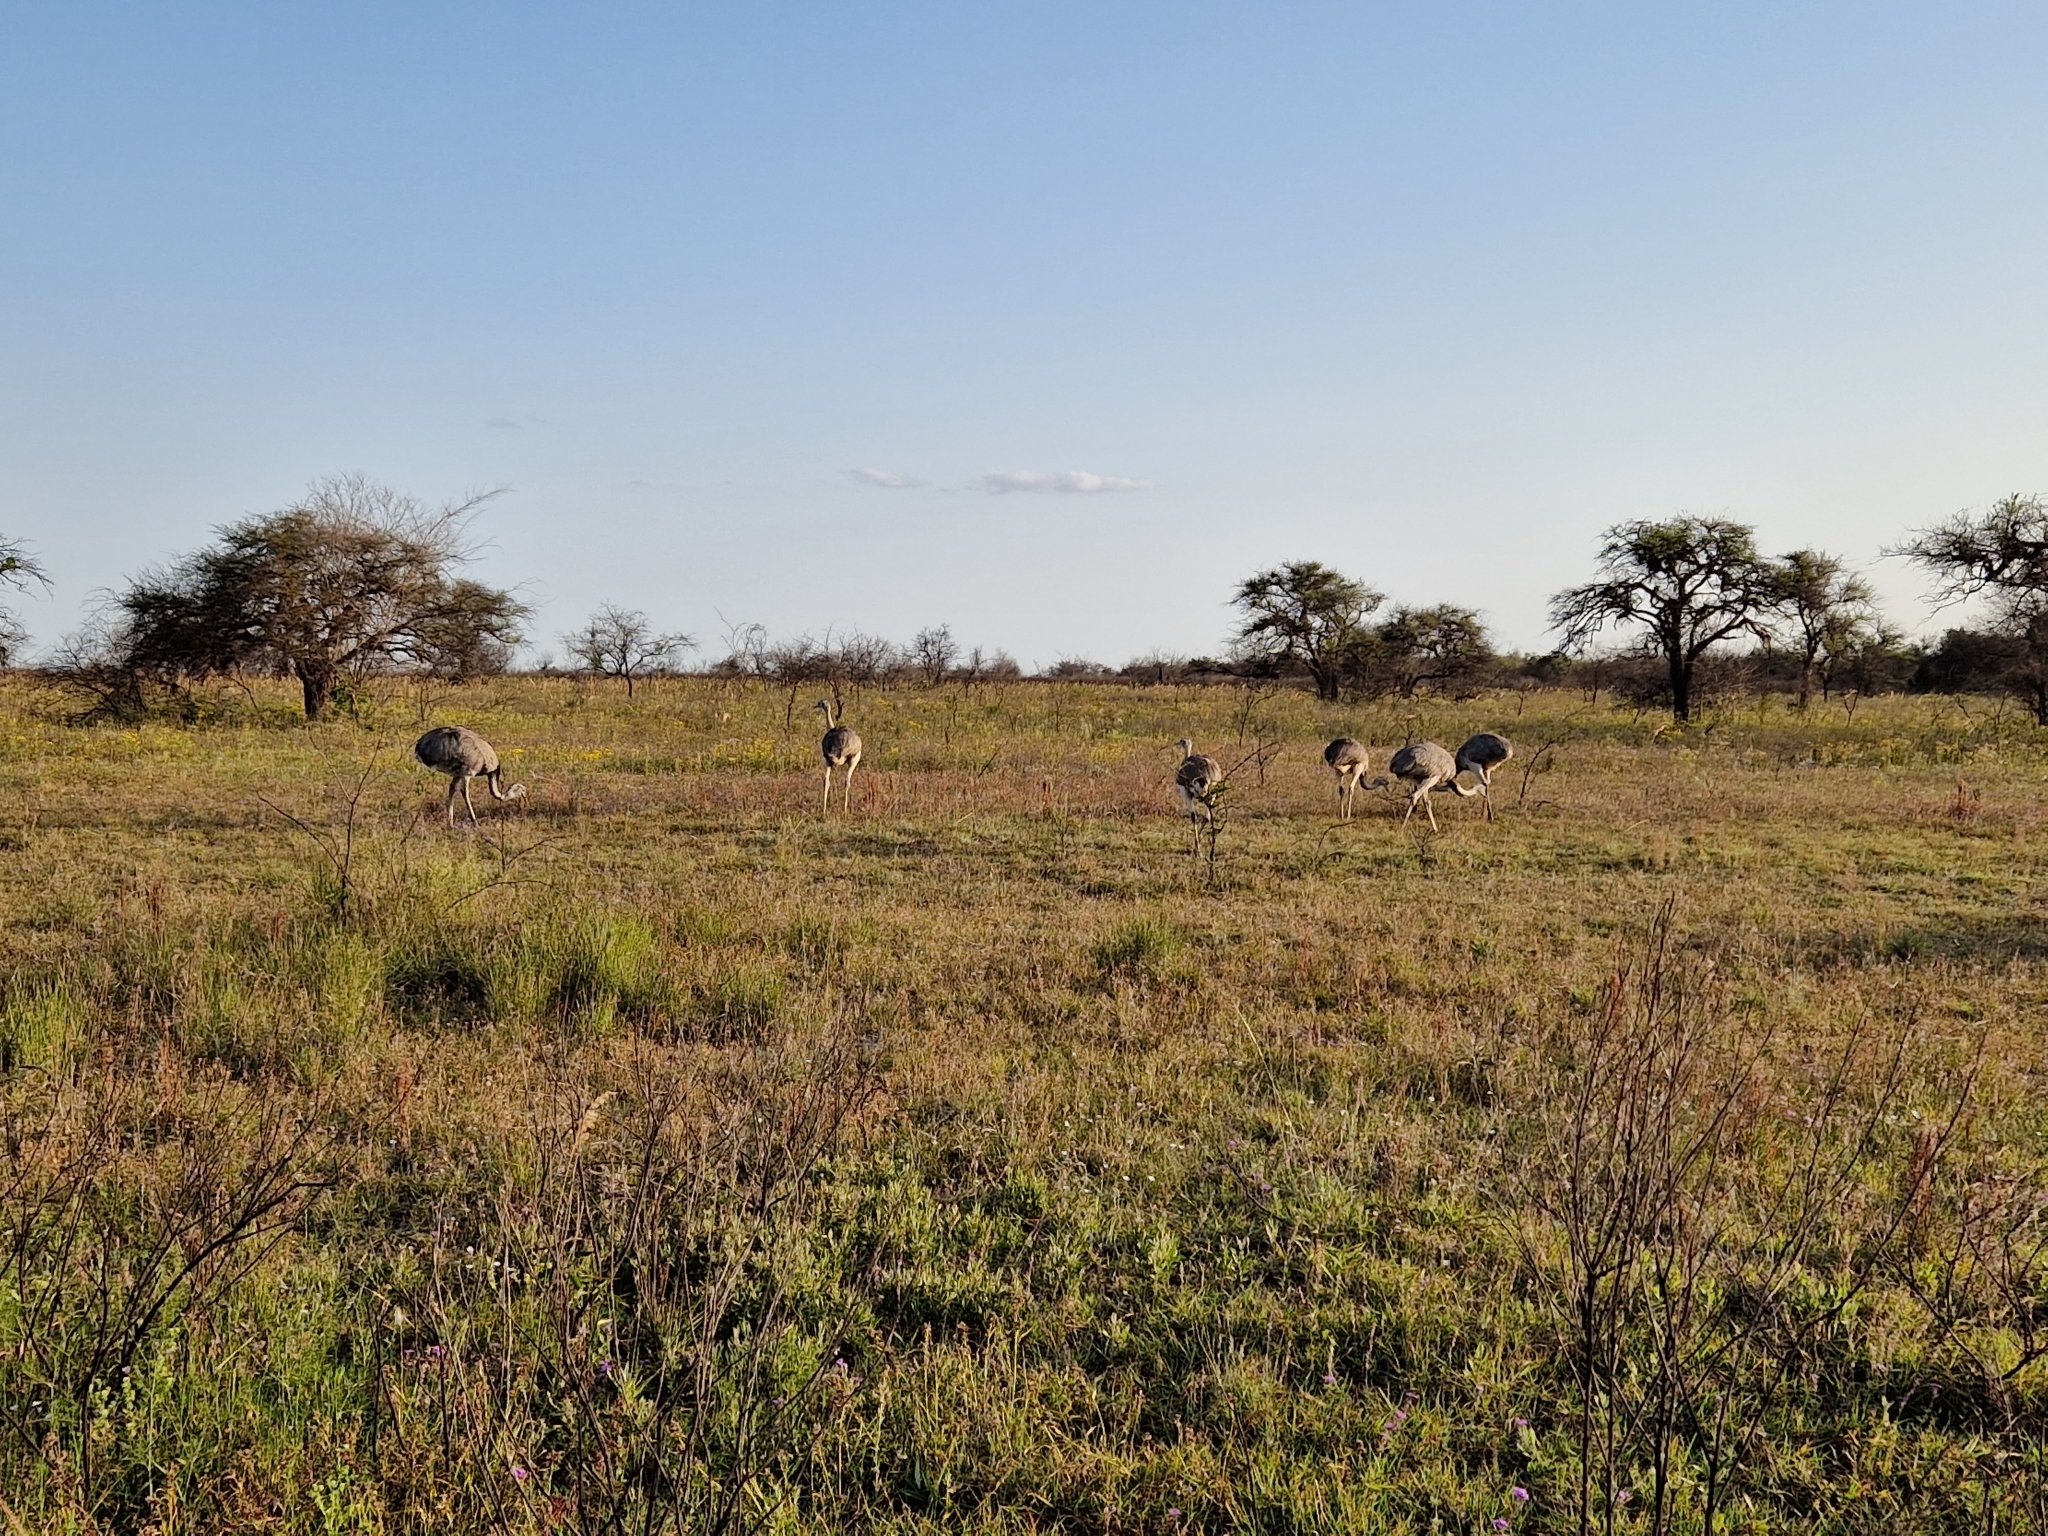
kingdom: Animalia
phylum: Chordata
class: Aves
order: Rheiformes
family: Rheidae
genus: Rhea
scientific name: Rhea americana
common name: Greater rhea
